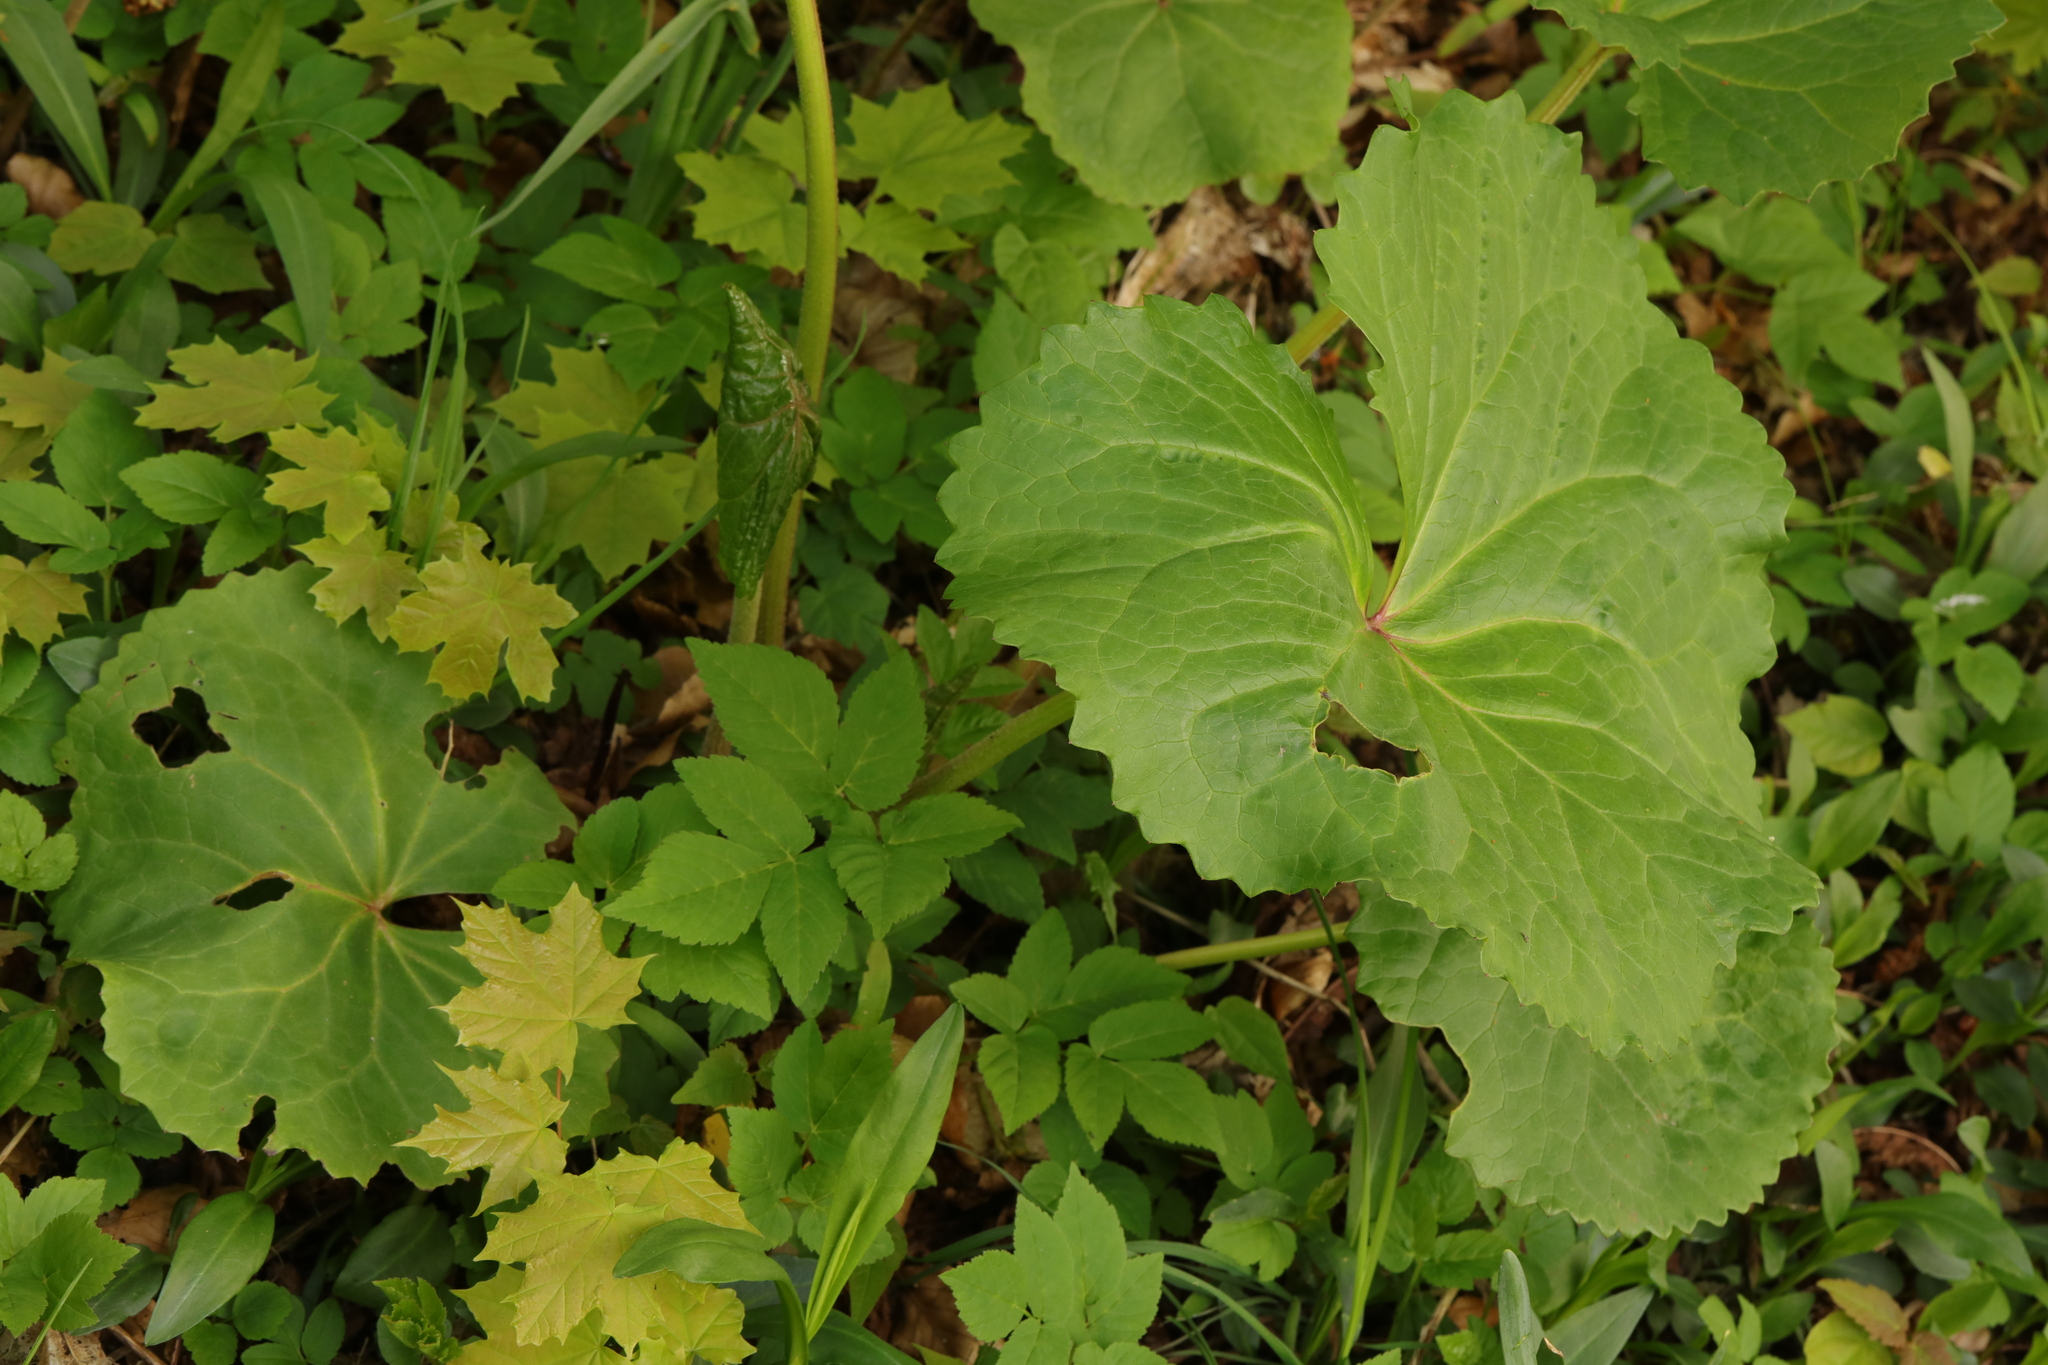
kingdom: Plantae
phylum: Tracheophyta
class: Magnoliopsida
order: Ranunculales
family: Ranunculaceae
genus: Caltha
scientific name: Caltha palustris
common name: Marsh marigold
